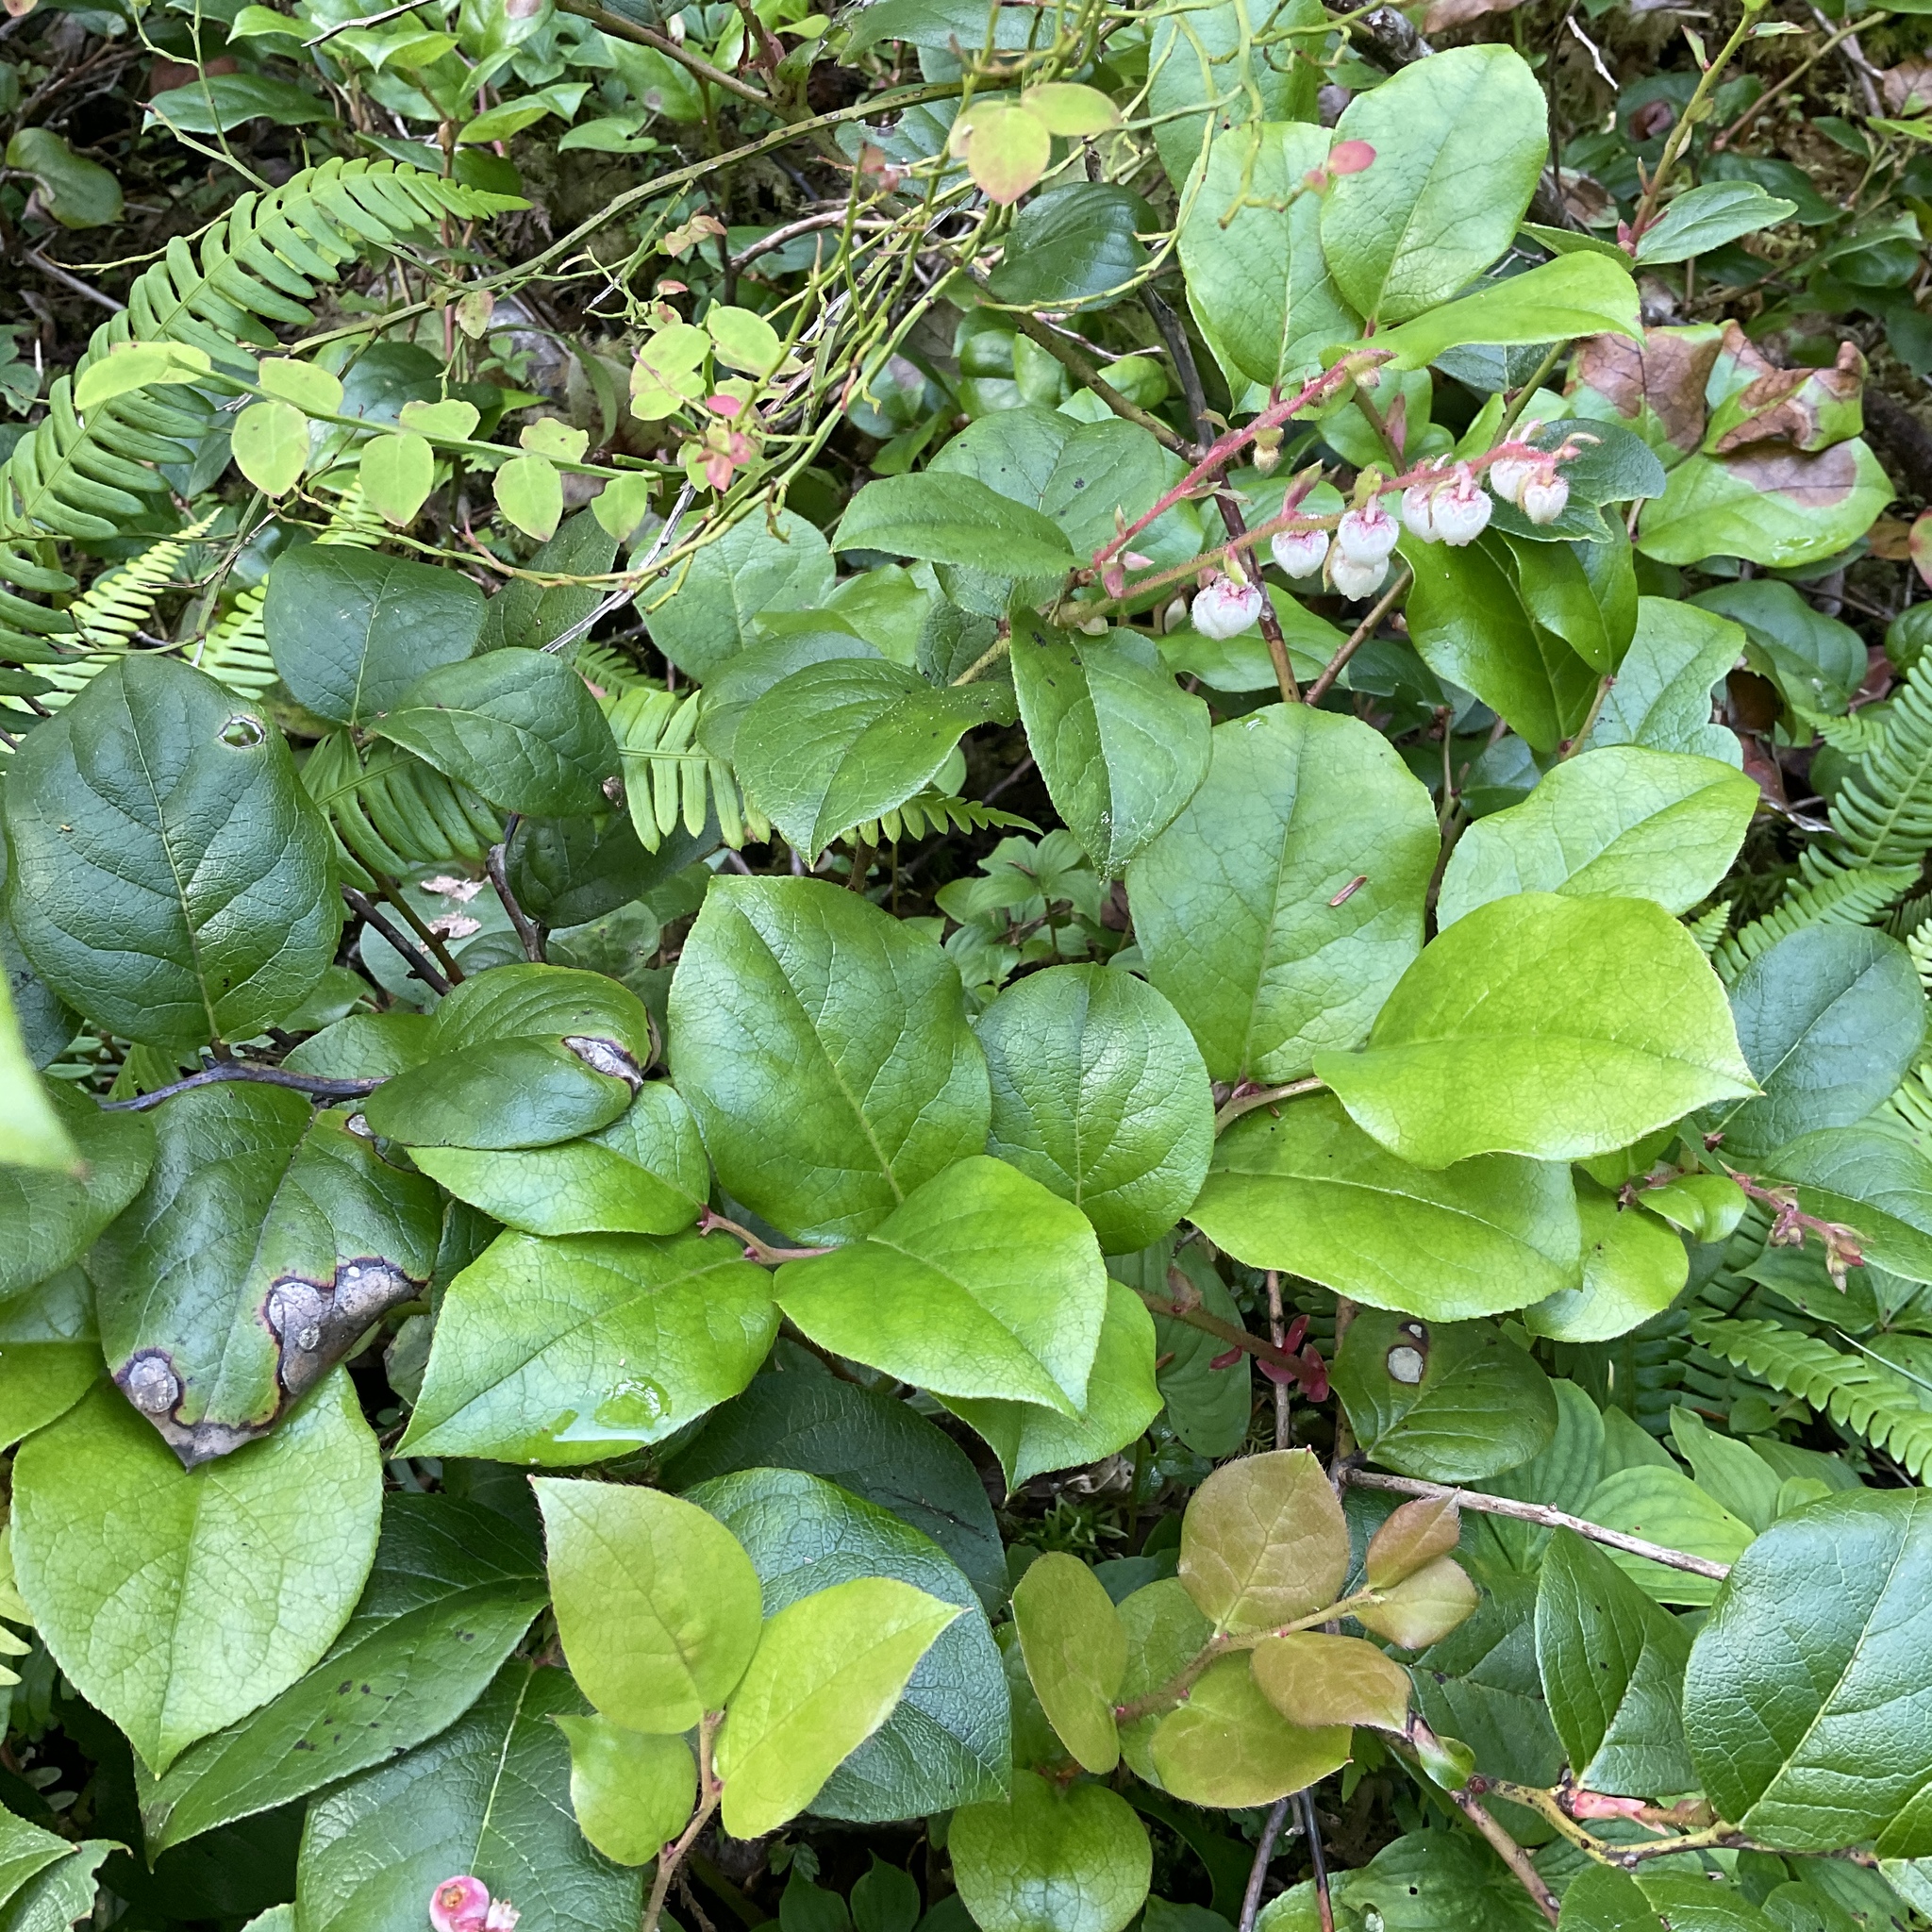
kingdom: Plantae
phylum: Tracheophyta
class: Magnoliopsida
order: Ericales
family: Ericaceae
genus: Gaultheria
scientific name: Gaultheria shallon
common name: Shallon
